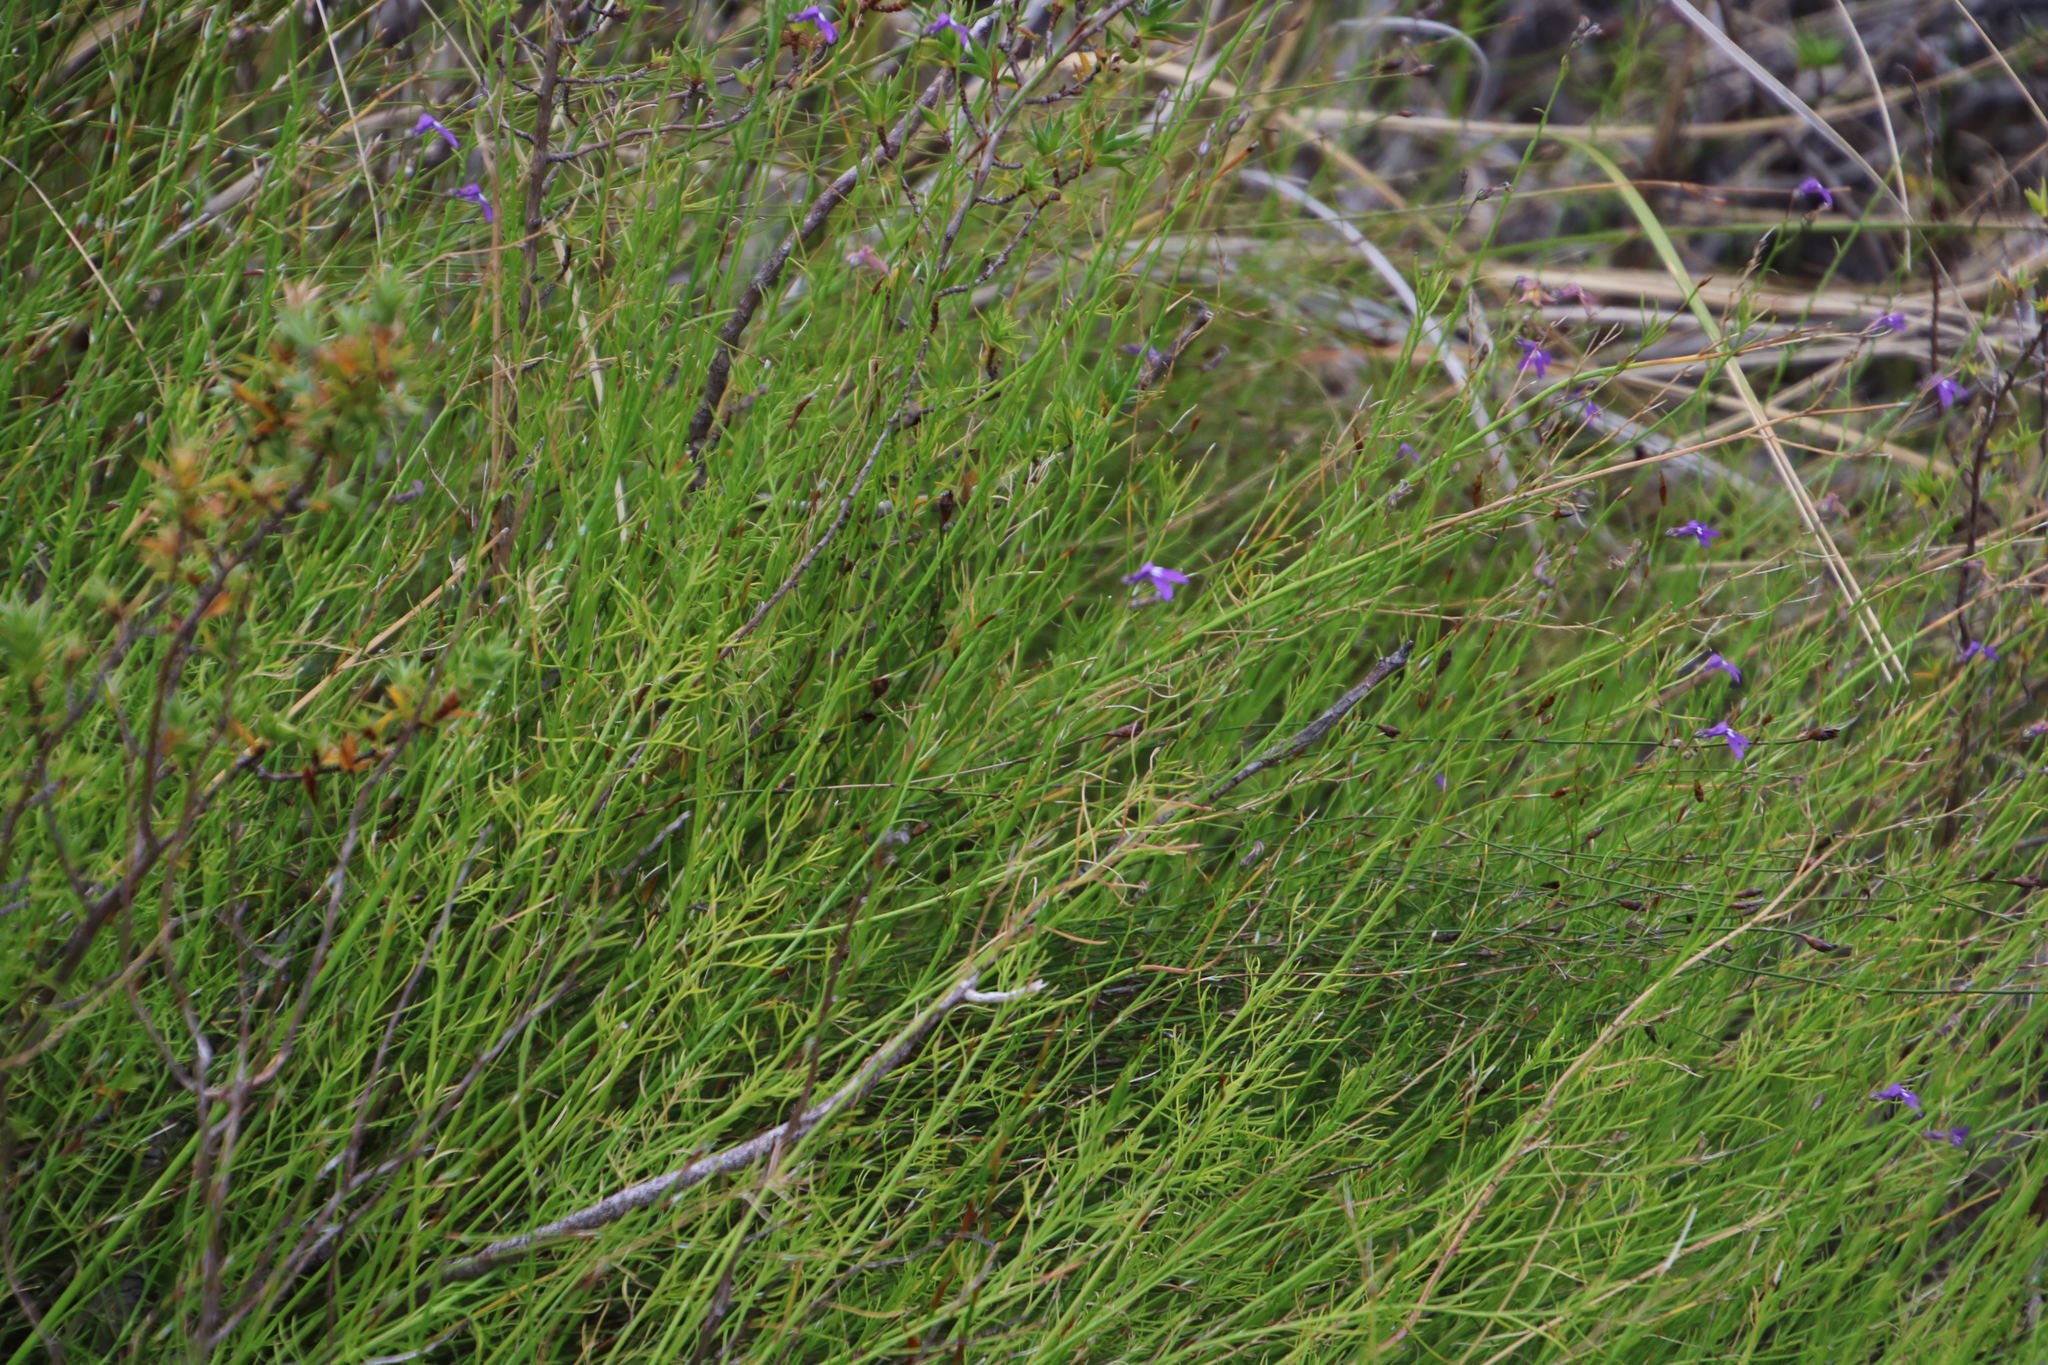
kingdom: Plantae
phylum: Tracheophyta
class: Magnoliopsida
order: Asterales
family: Campanulaceae
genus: Lobelia
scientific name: Lobelia setacea
